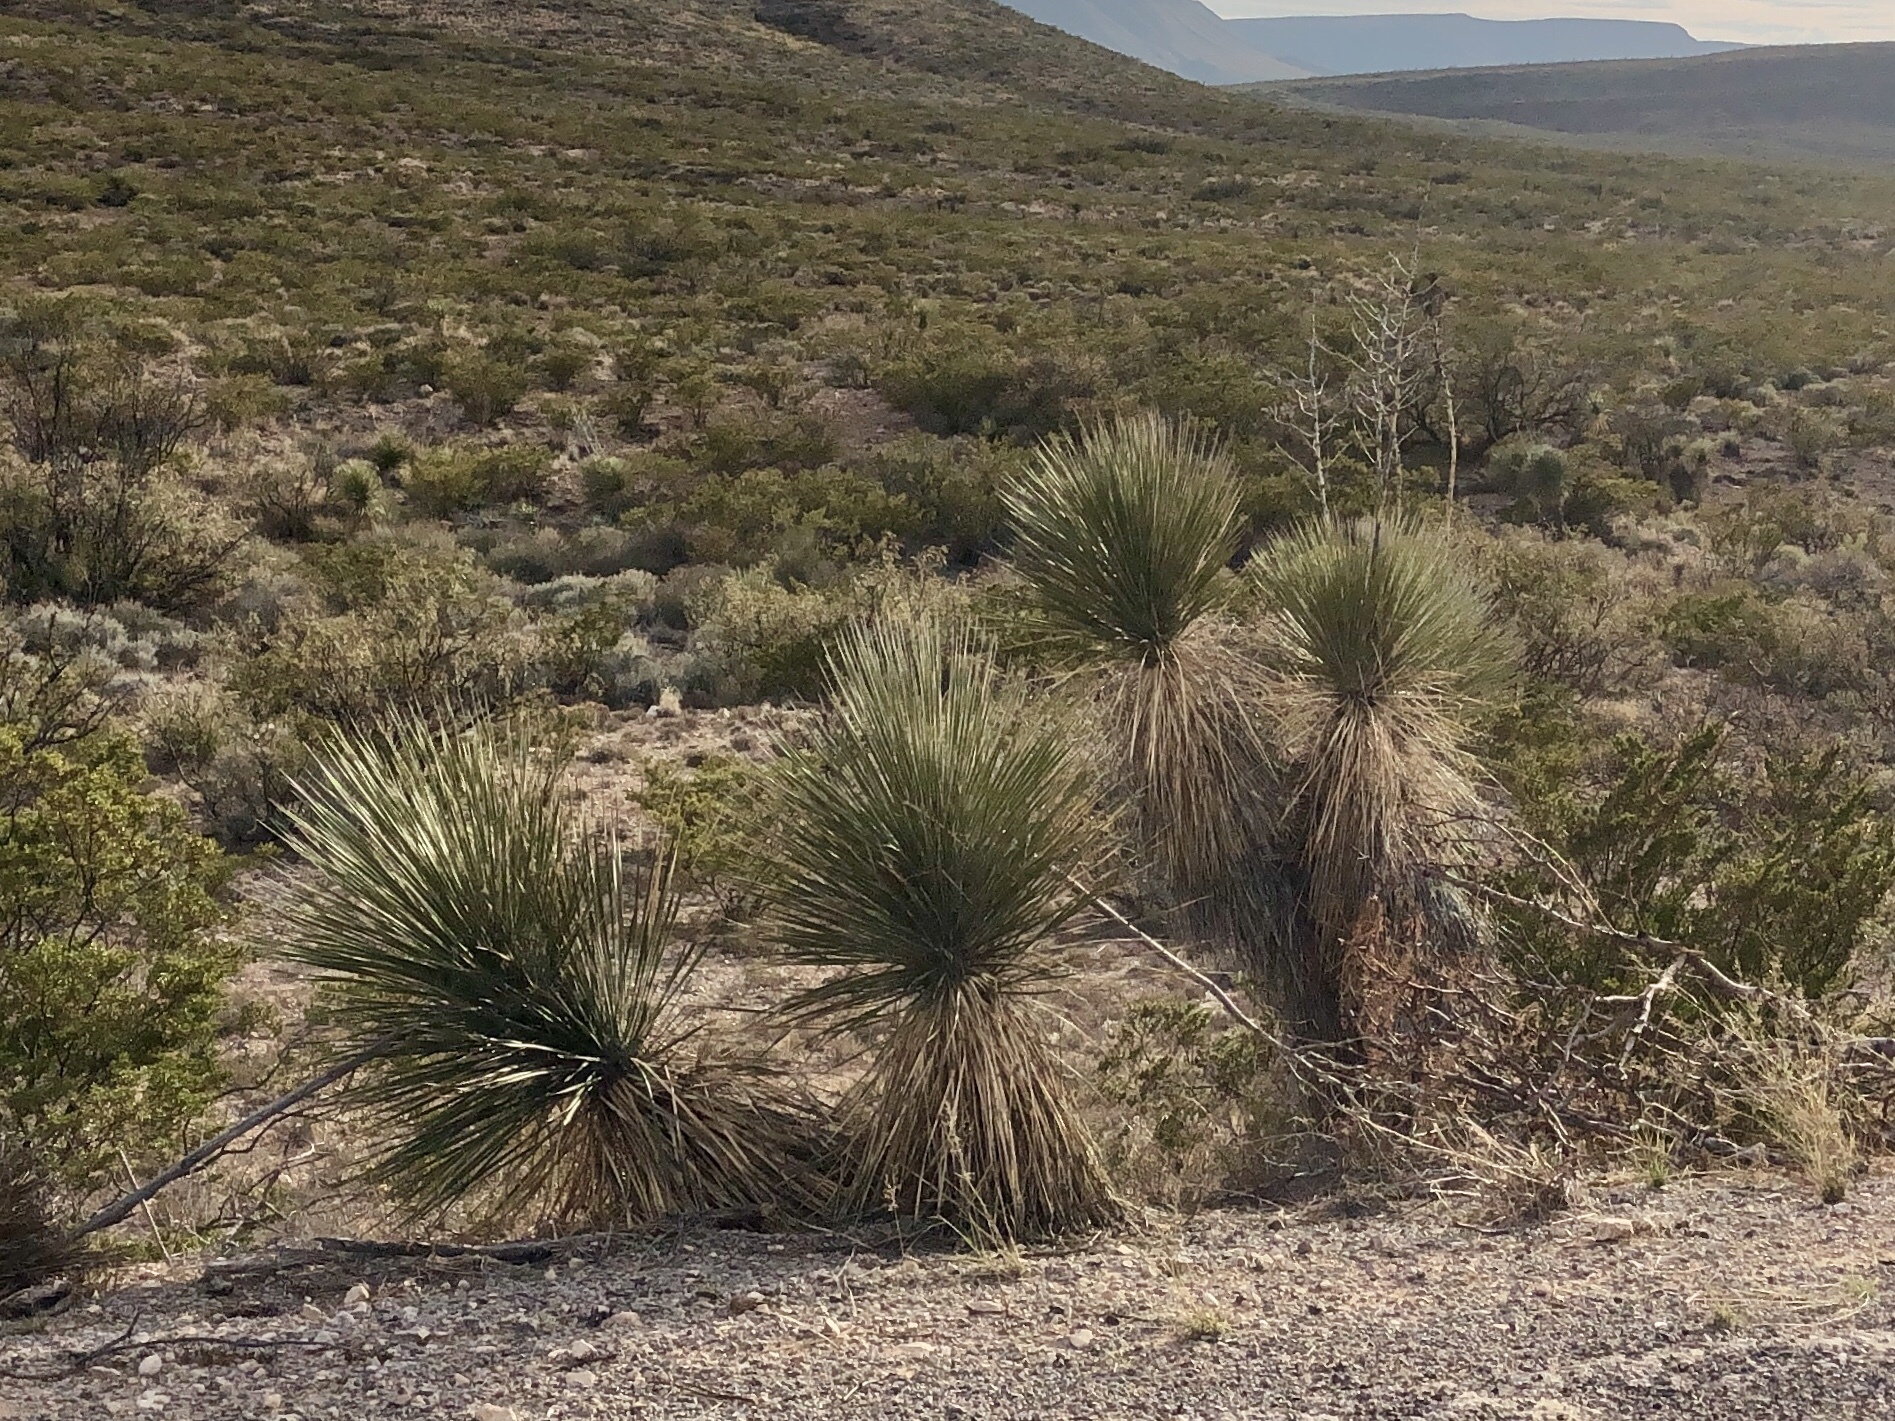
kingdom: Plantae
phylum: Tracheophyta
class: Liliopsida
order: Asparagales
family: Asparagaceae
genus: Yucca
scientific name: Yucca elata
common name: Palmella
